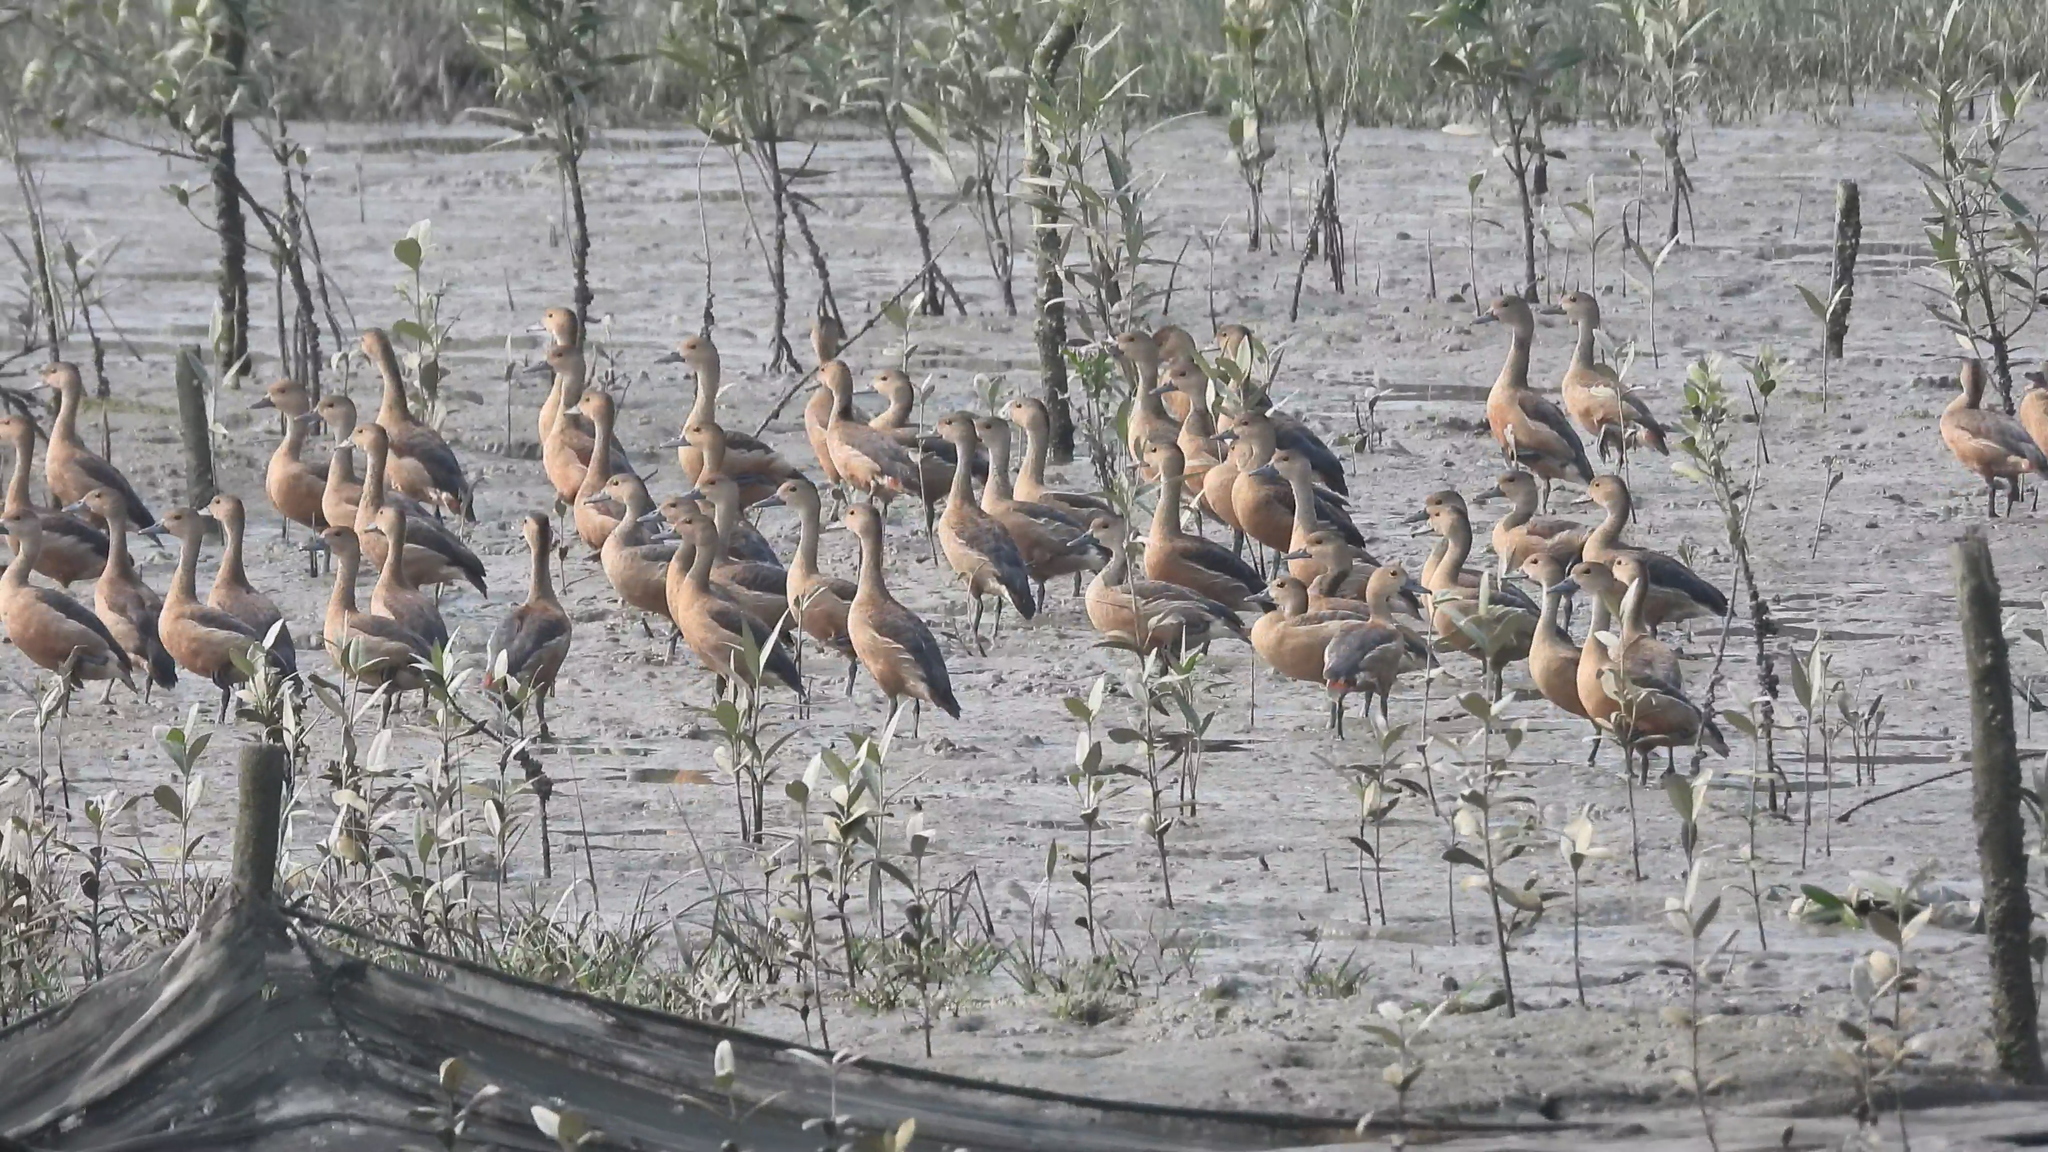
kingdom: Animalia
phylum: Chordata
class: Aves
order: Anseriformes
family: Anatidae
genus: Dendrocygna
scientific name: Dendrocygna javanica
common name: Lesser whistling-duck
